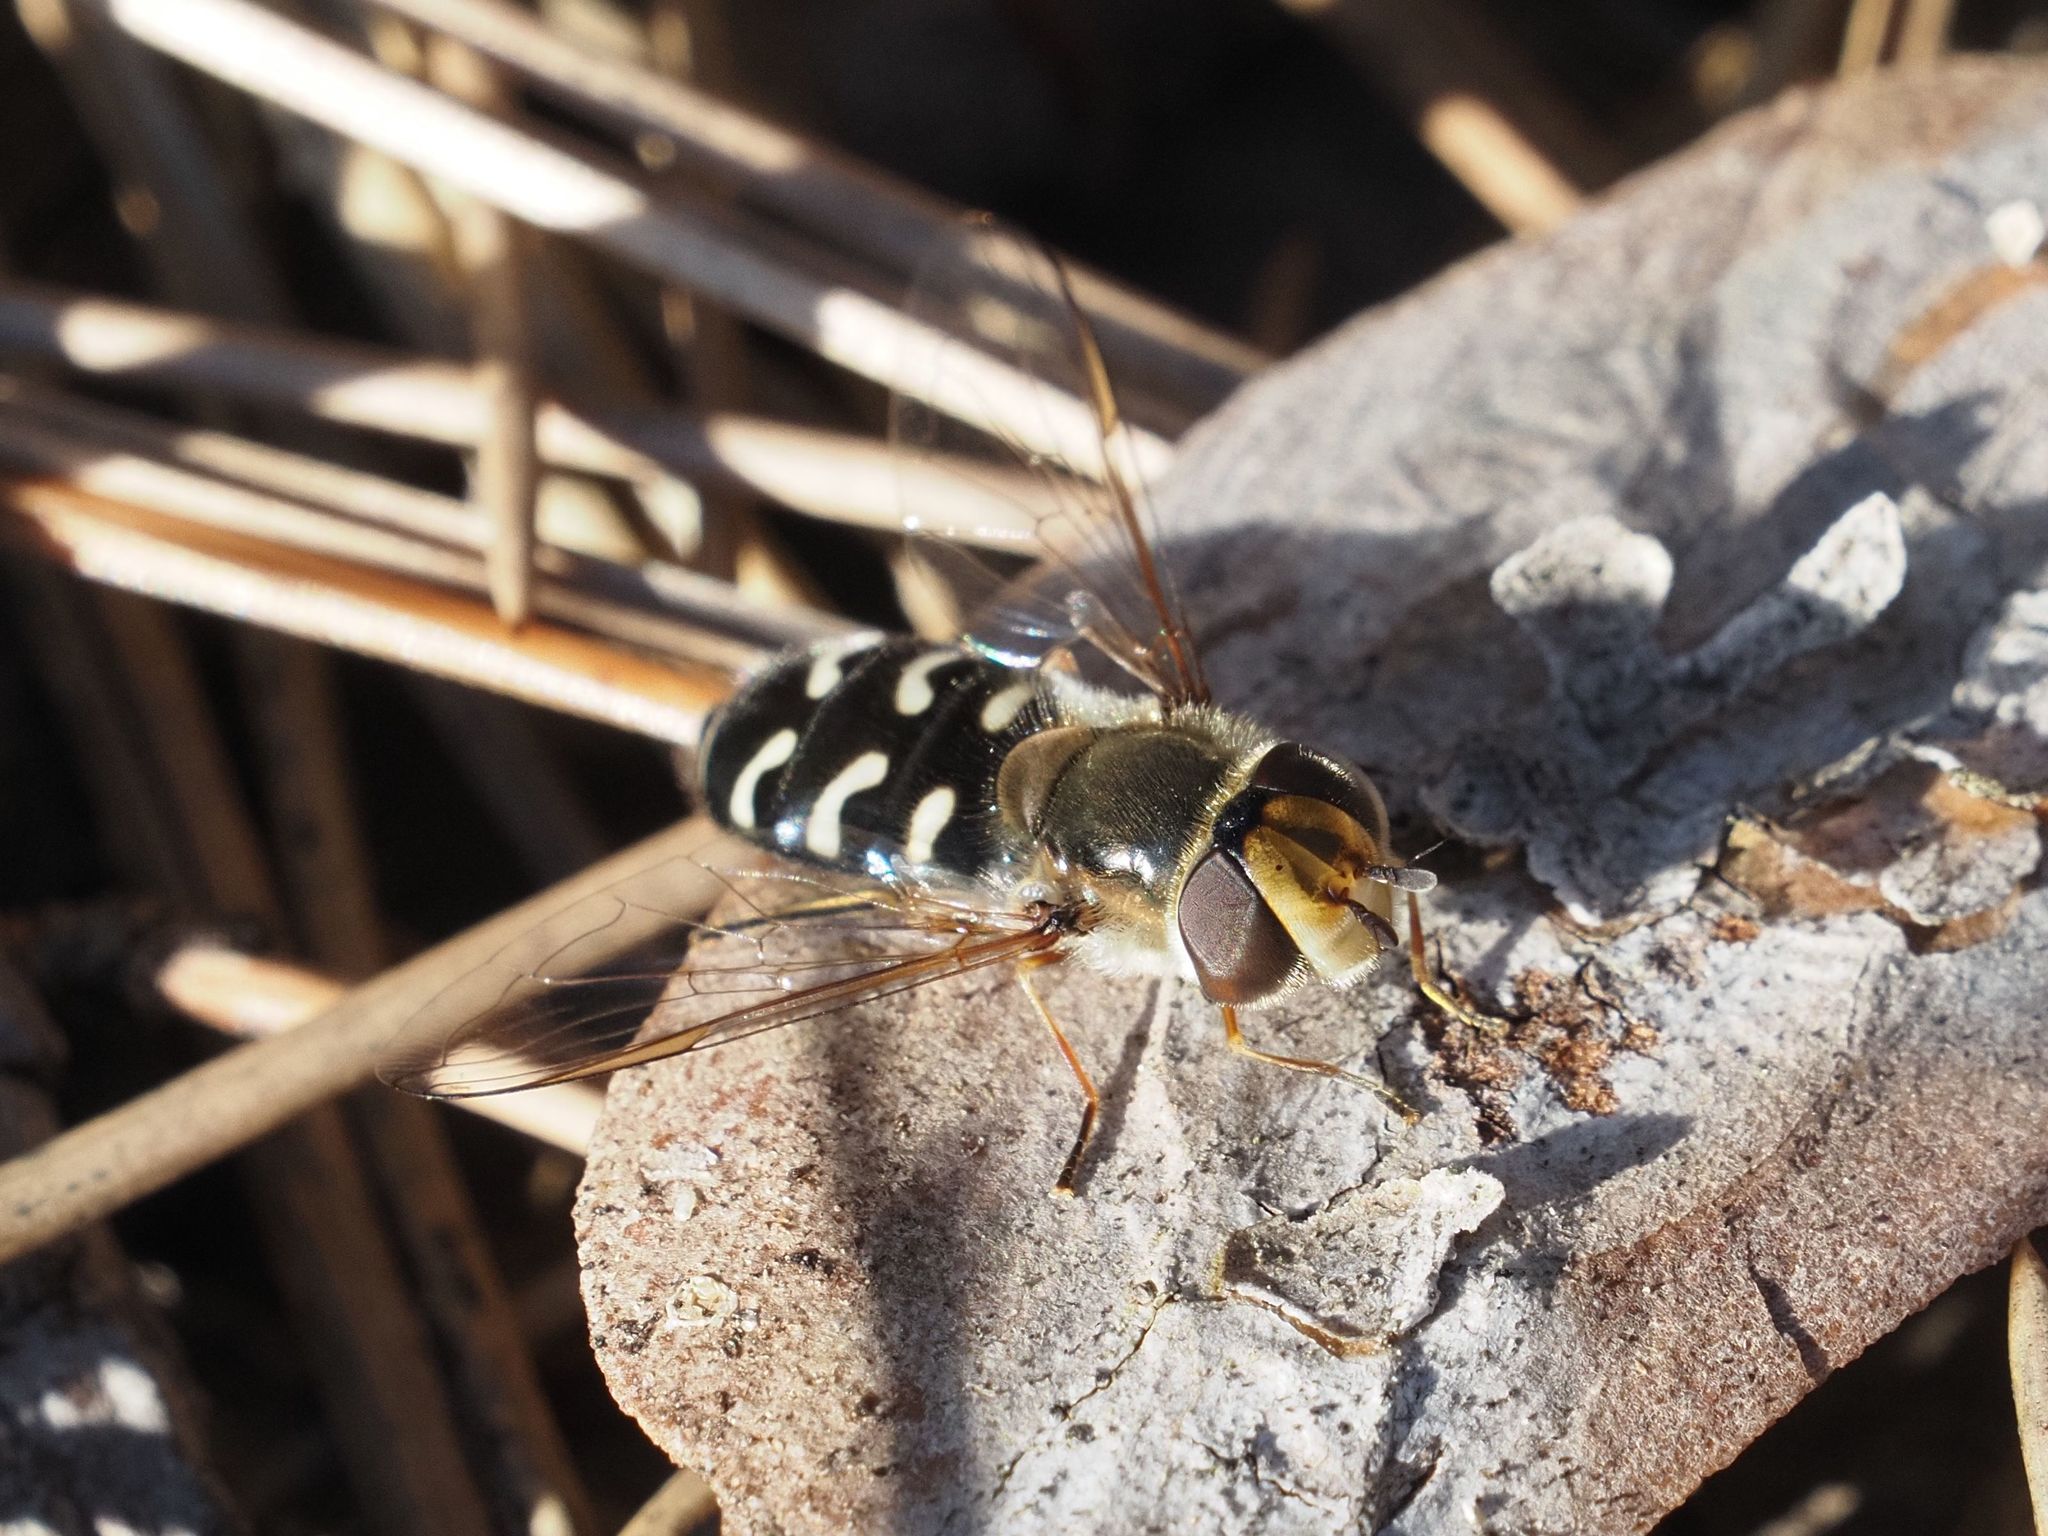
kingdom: Animalia
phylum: Arthropoda
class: Insecta
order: Diptera
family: Syrphidae
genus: Scaeva
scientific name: Scaeva pyrastri
